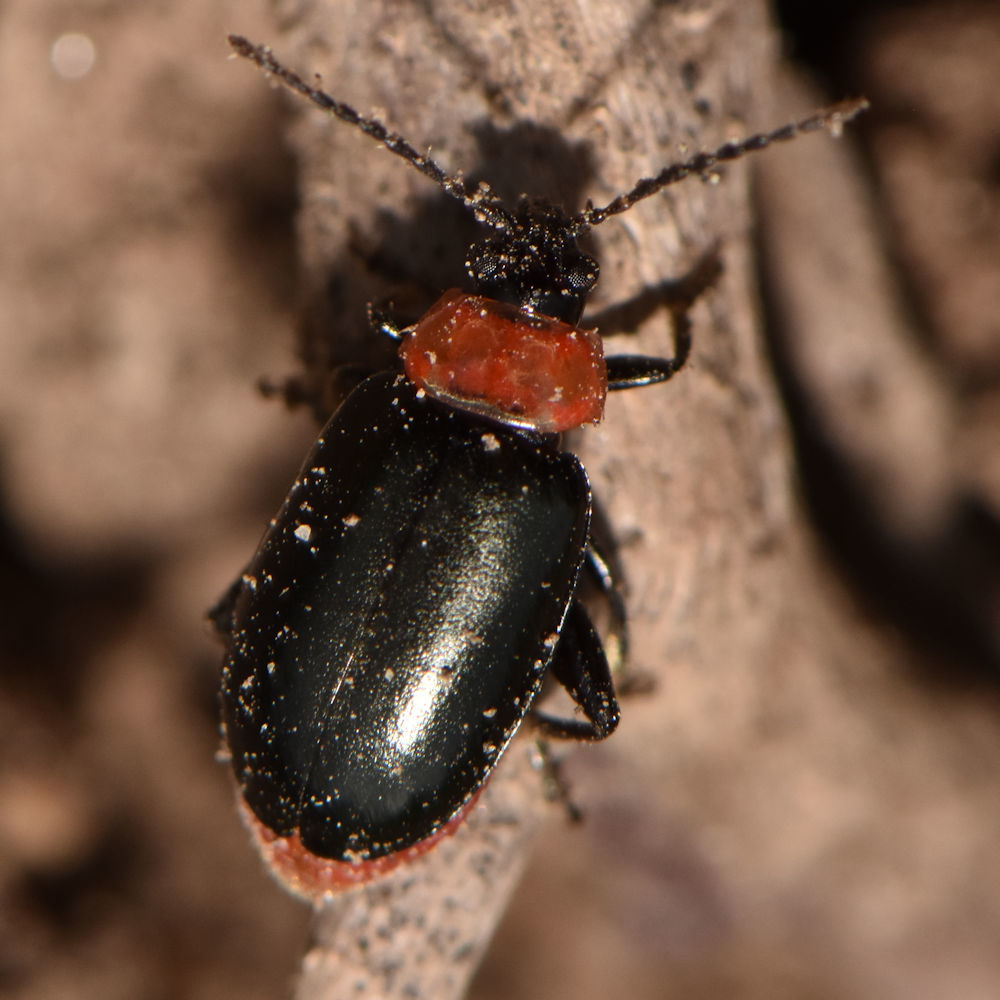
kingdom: Animalia
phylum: Arthropoda
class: Insecta
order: Coleoptera
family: Chrysomelidae
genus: Disonycha
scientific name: Disonycha xanthomelas
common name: Spinach flea beetle
